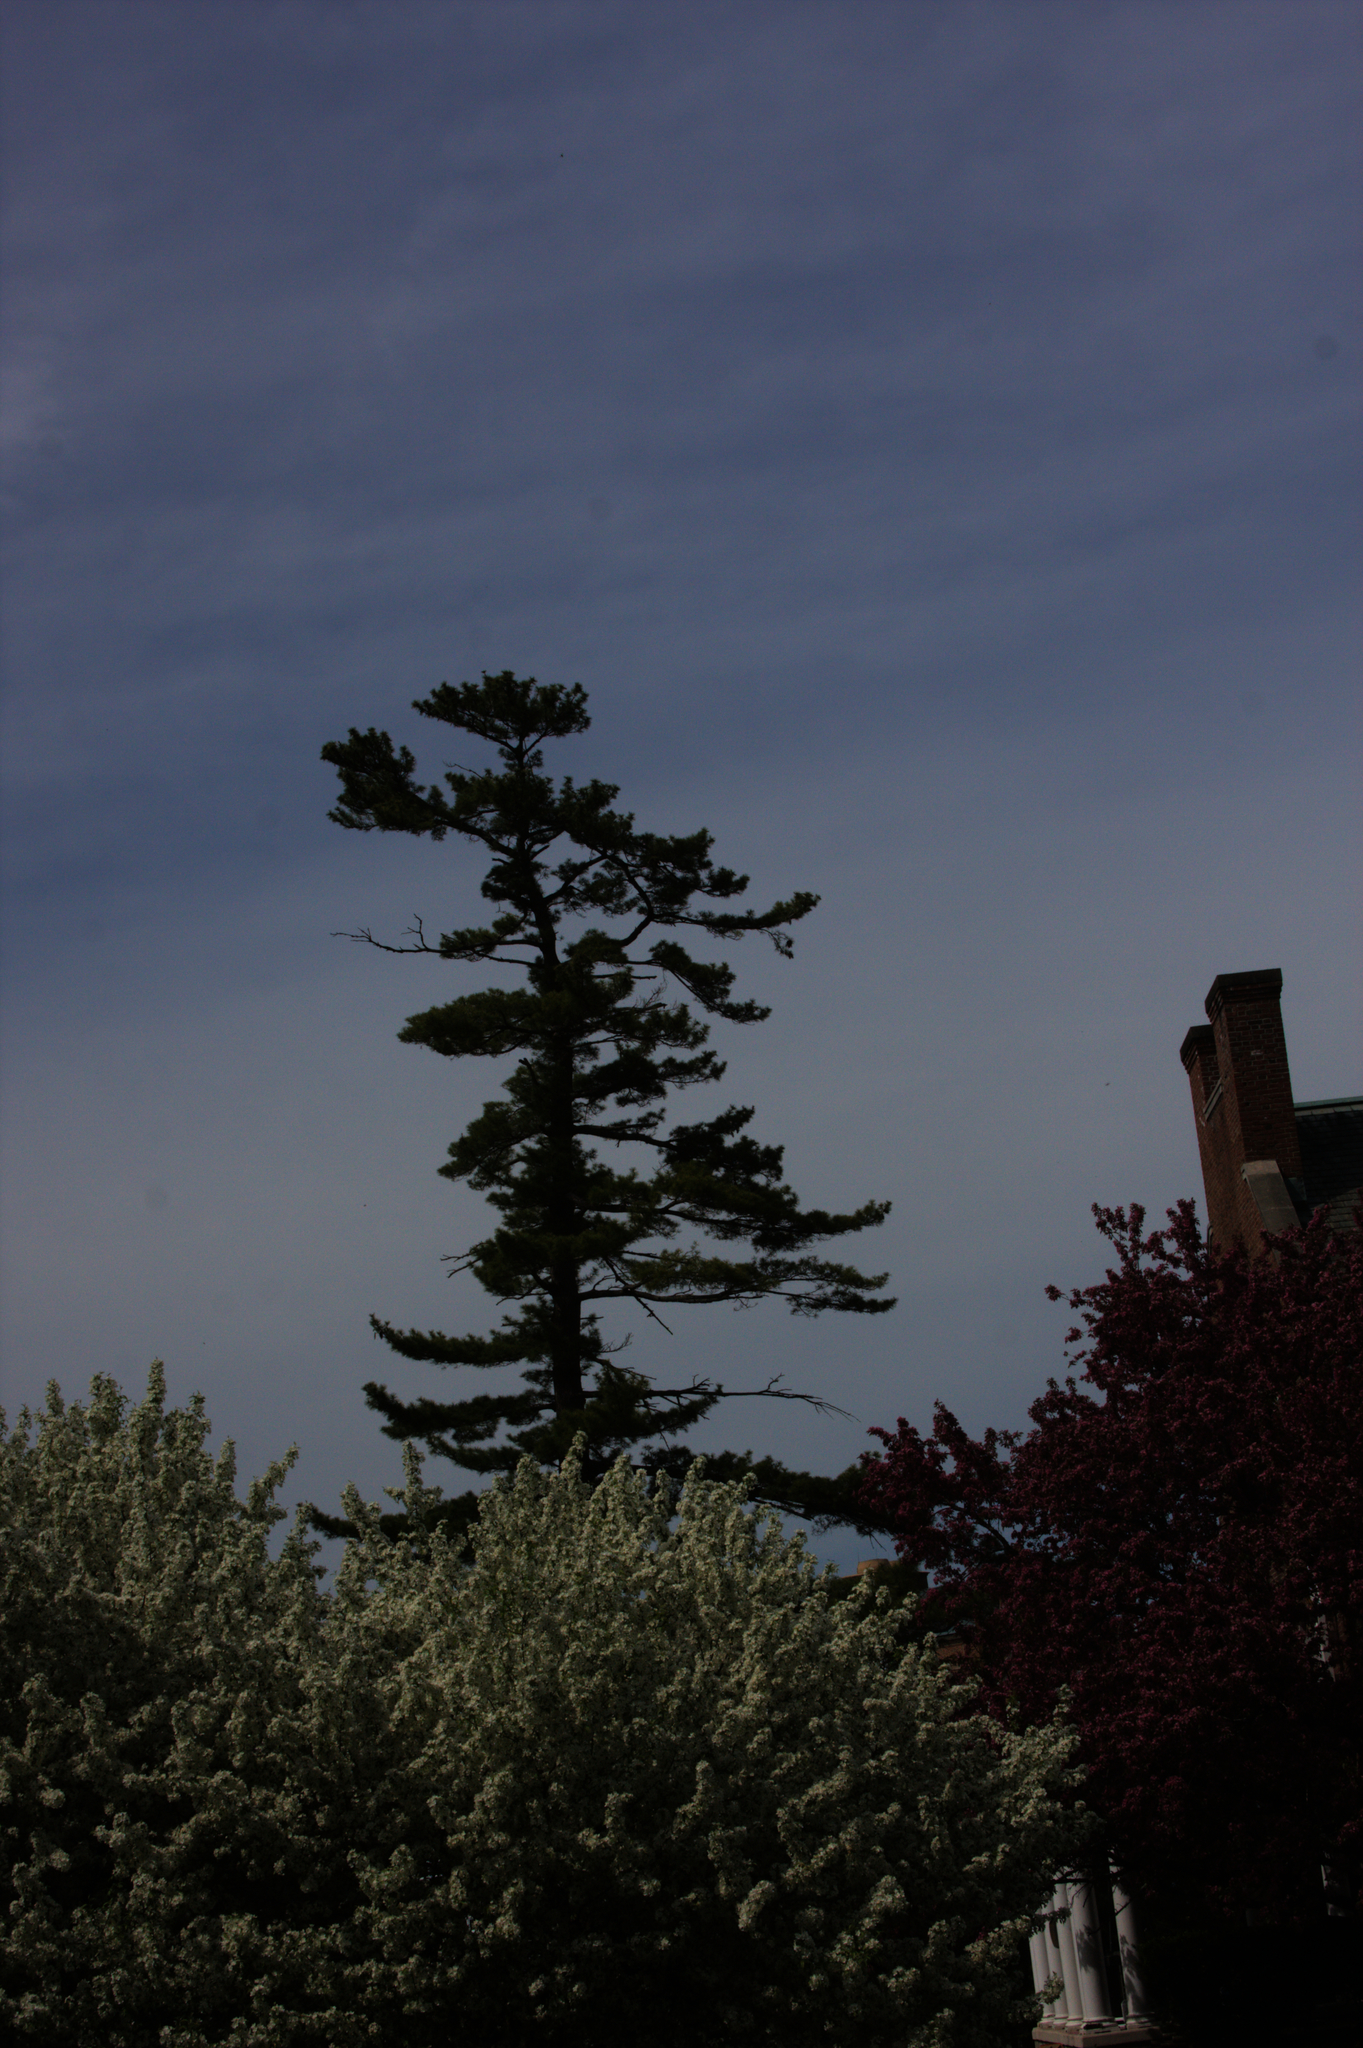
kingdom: Plantae
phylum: Tracheophyta
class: Pinopsida
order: Pinales
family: Pinaceae
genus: Pinus
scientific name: Pinus strobus
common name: Weymouth pine
